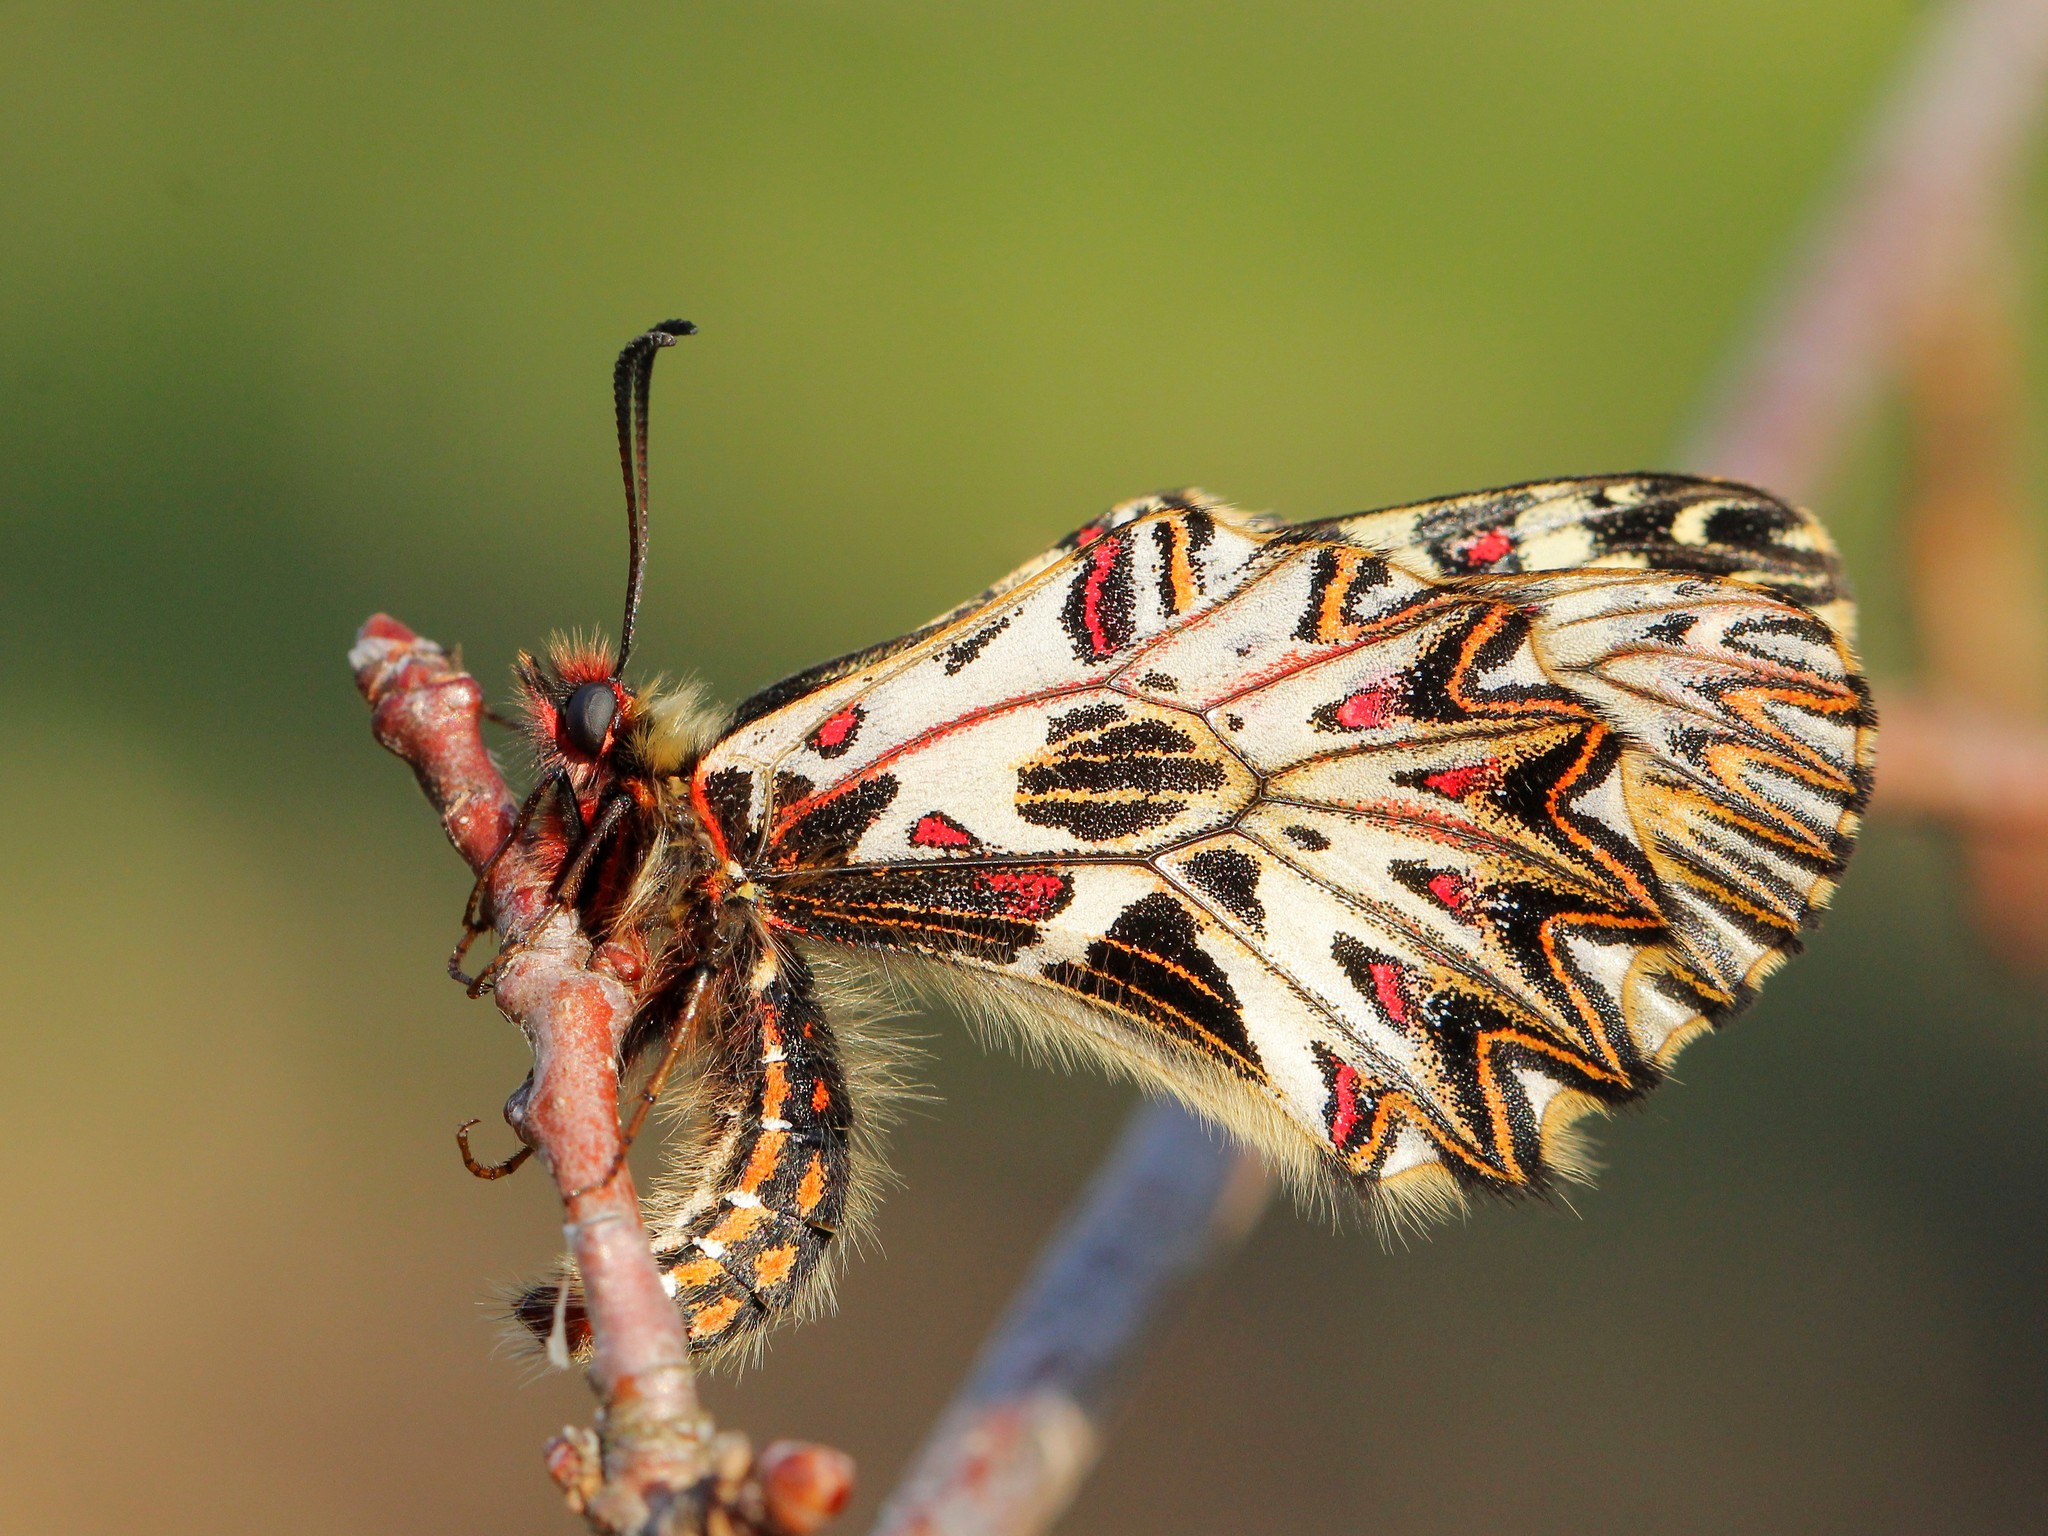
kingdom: Animalia
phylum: Arthropoda
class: Insecta
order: Lepidoptera
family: Papilionidae
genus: Zerynthia
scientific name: Zerynthia polyxena
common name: Southern festoon
